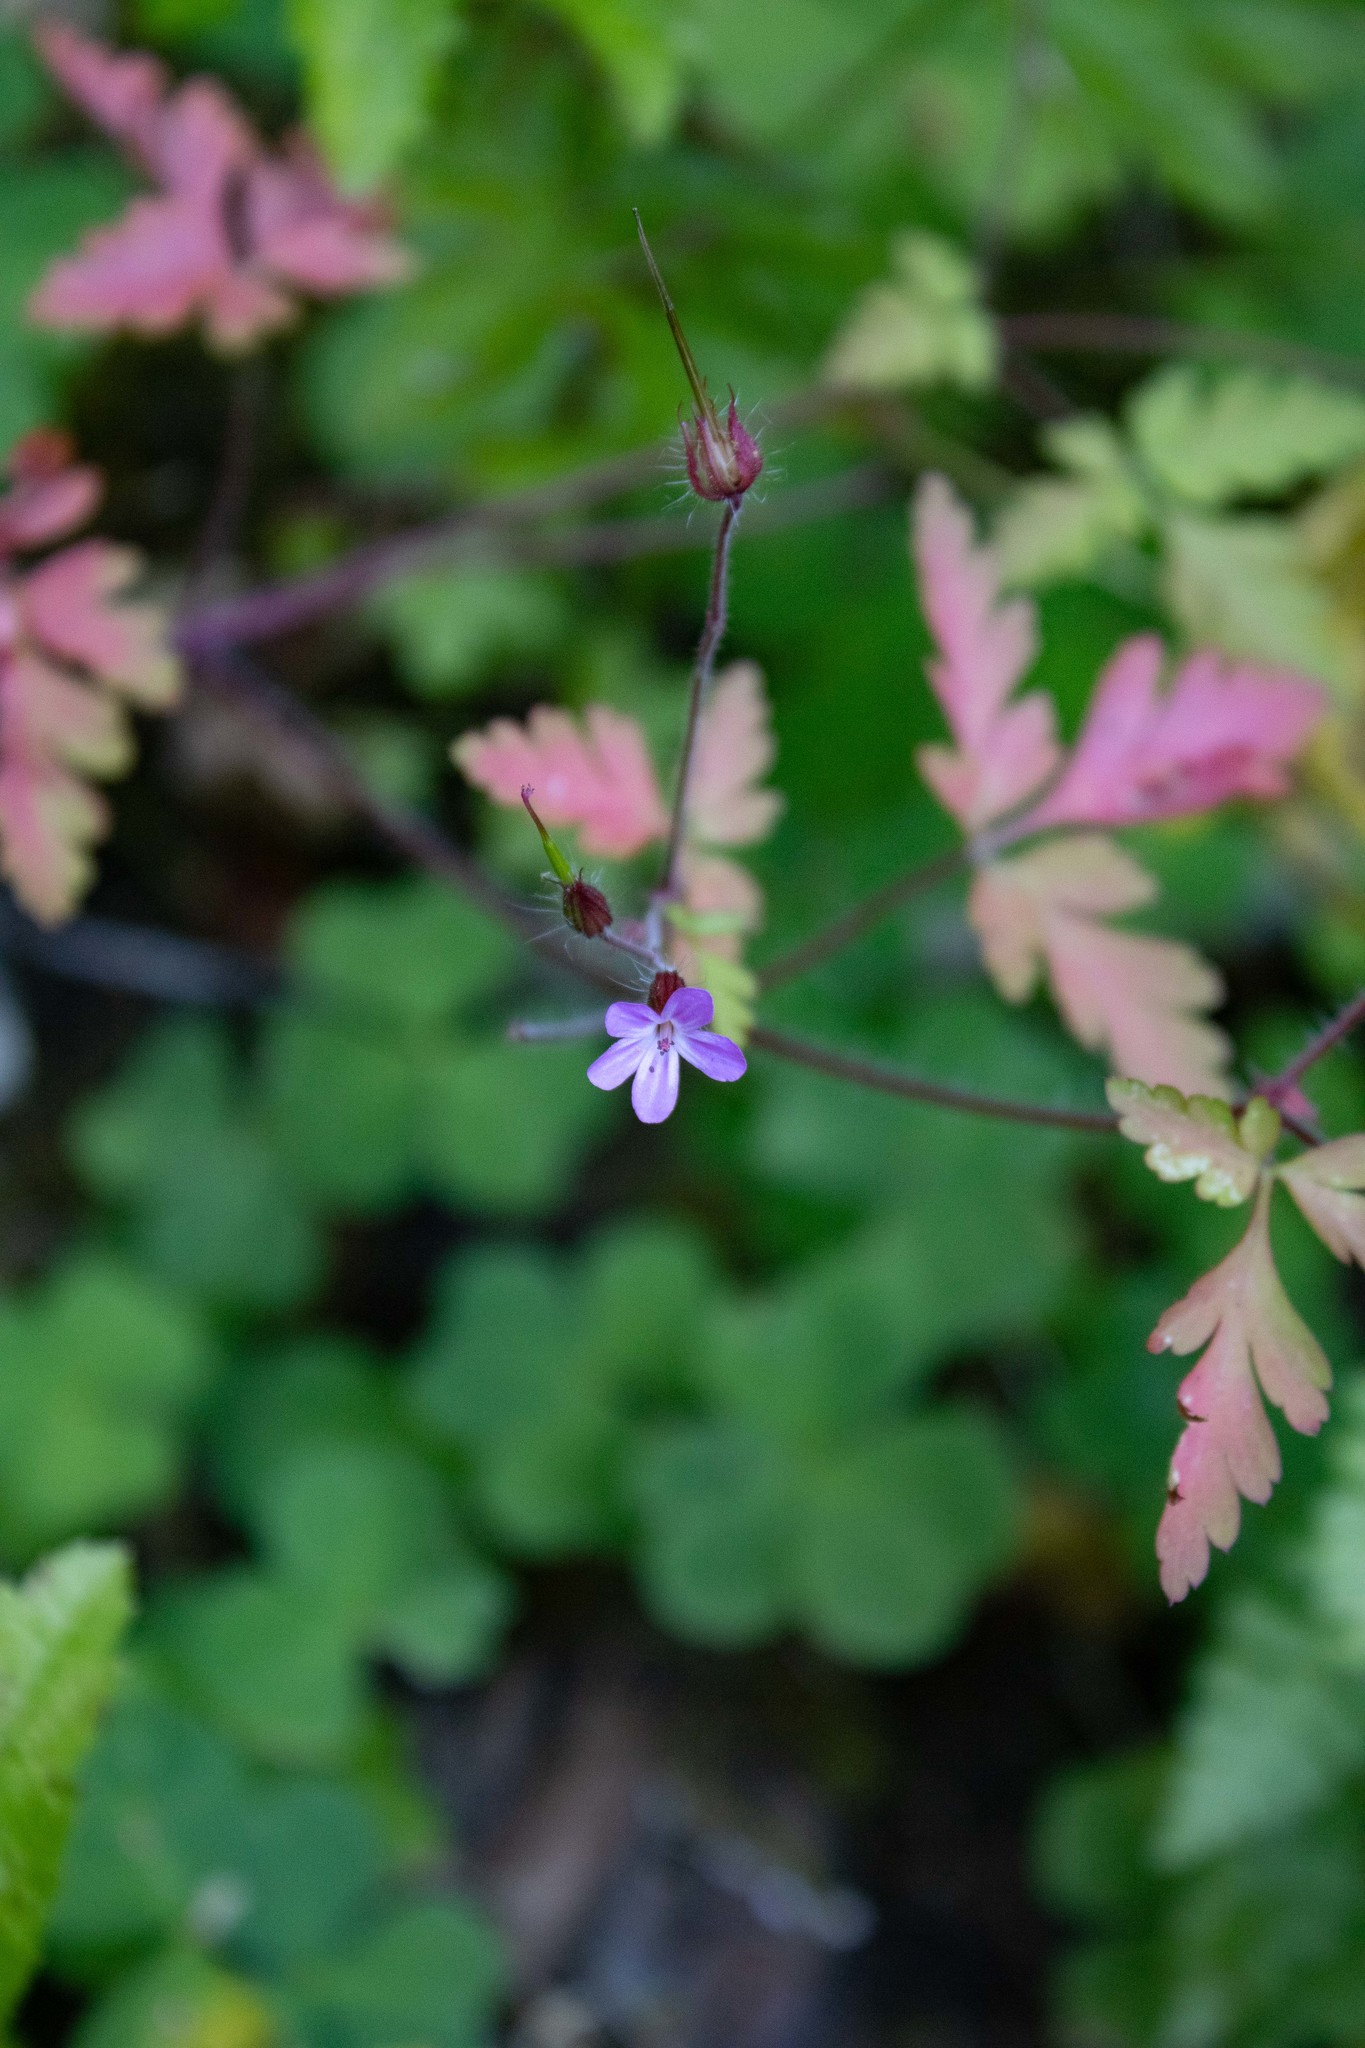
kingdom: Plantae
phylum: Tracheophyta
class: Magnoliopsida
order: Geraniales
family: Geraniaceae
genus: Geranium
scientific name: Geranium robertianum
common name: Herb-robert
